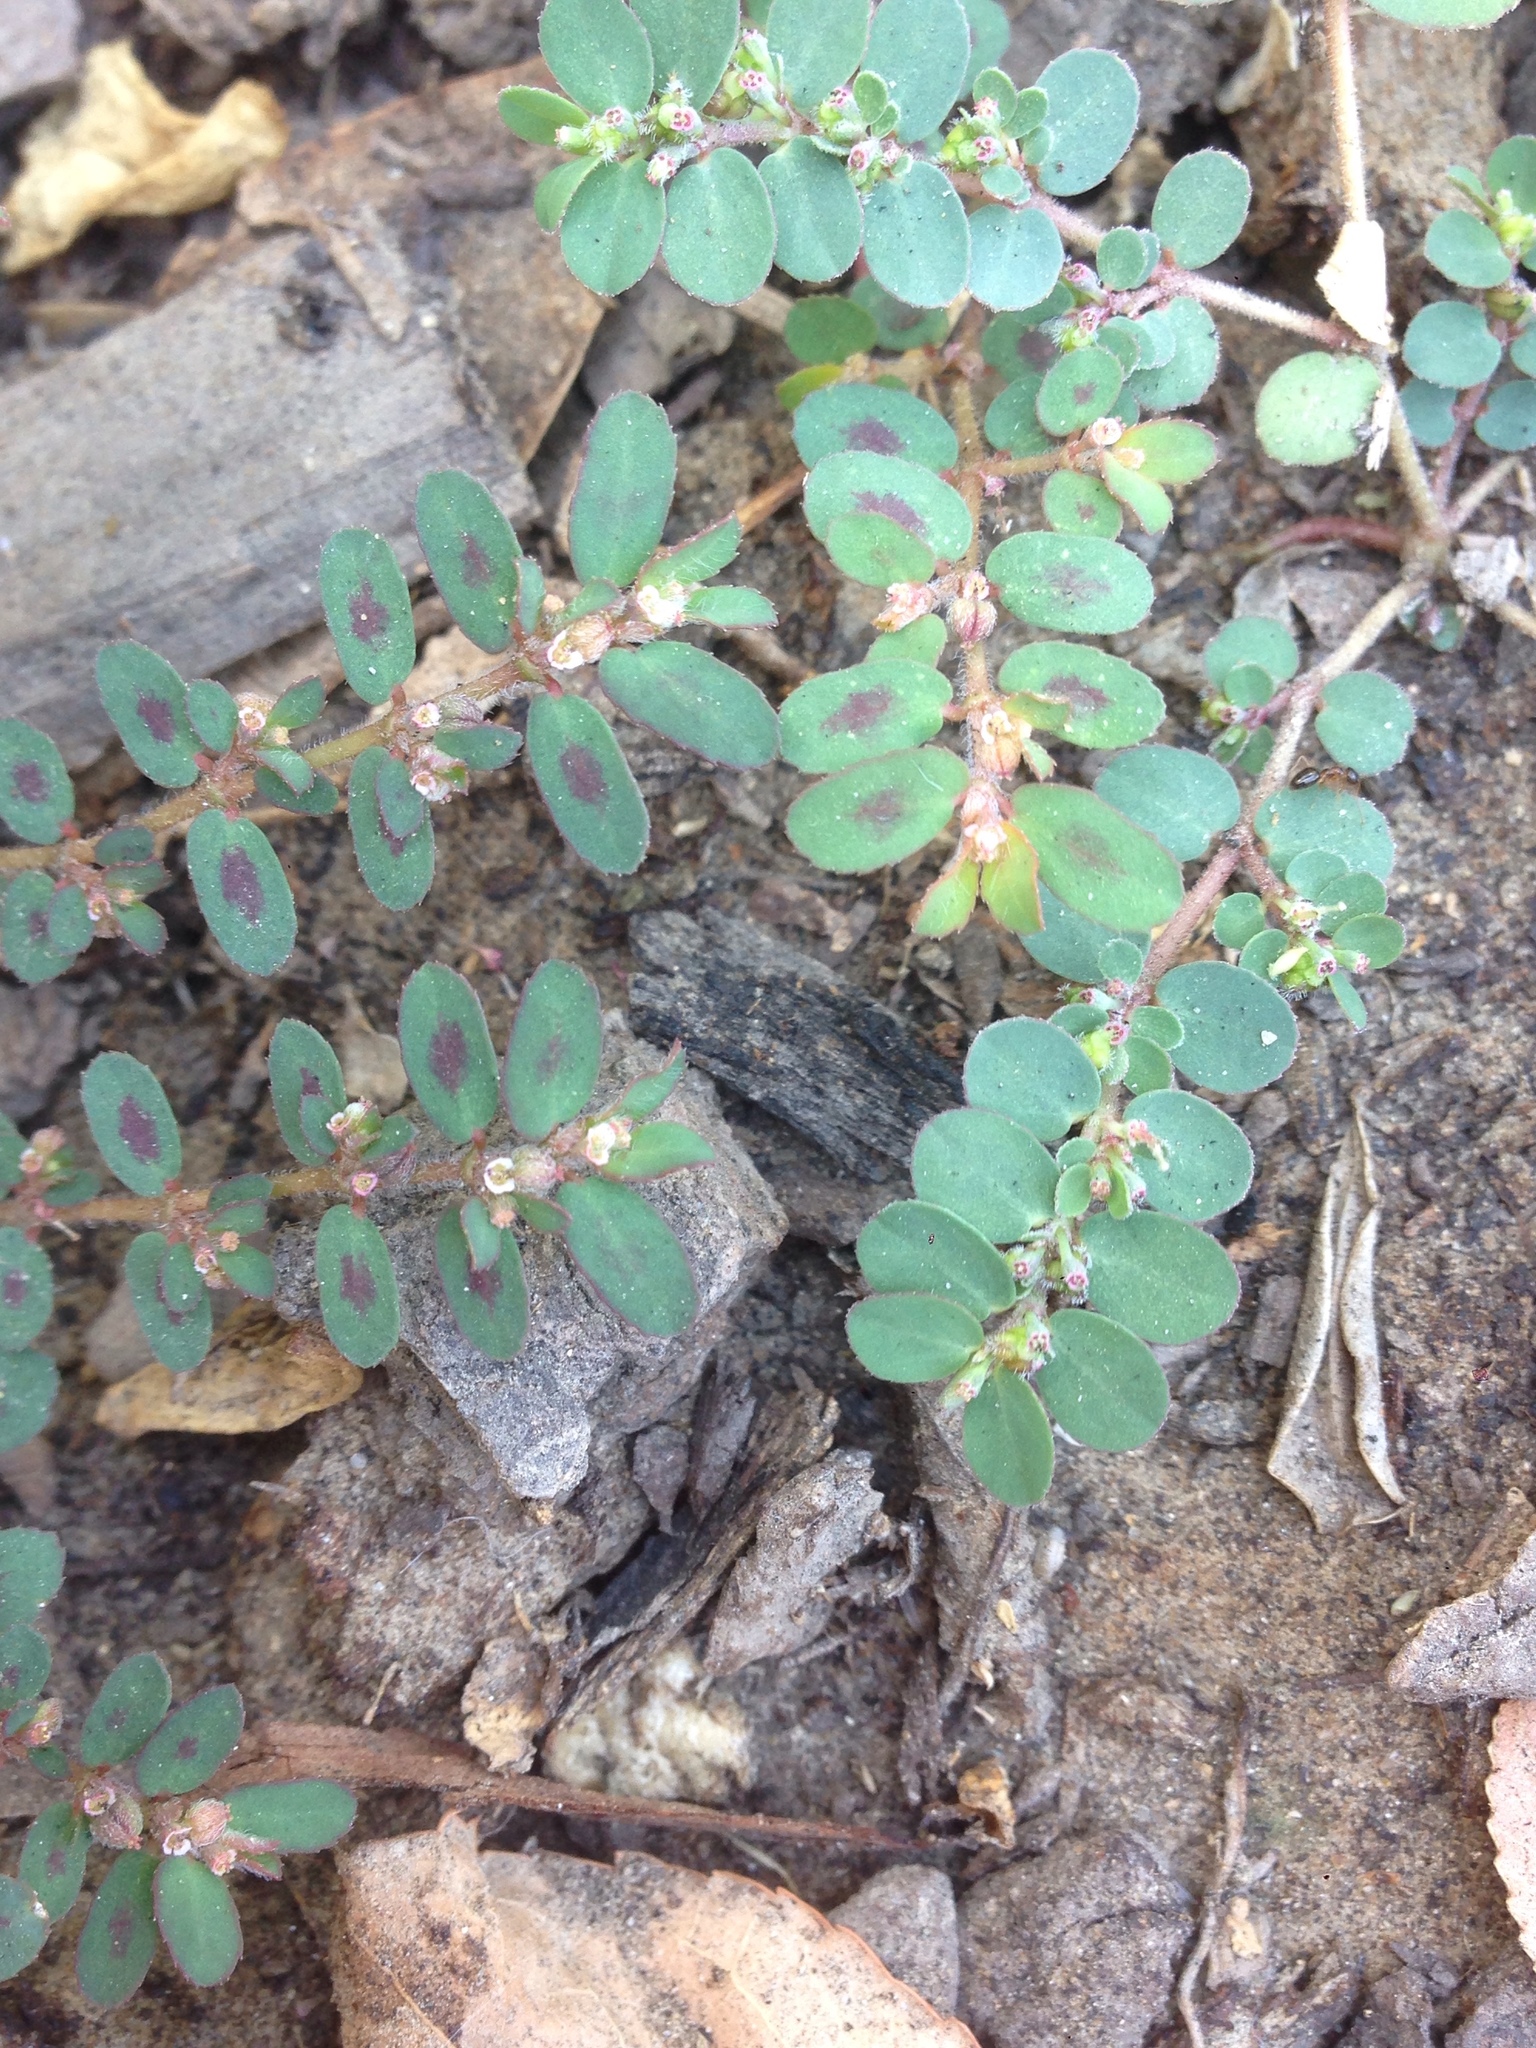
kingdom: Plantae
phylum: Tracheophyta
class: Magnoliopsida
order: Malpighiales
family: Euphorbiaceae
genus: Euphorbia
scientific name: Euphorbia maculata
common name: Spotted spurge
